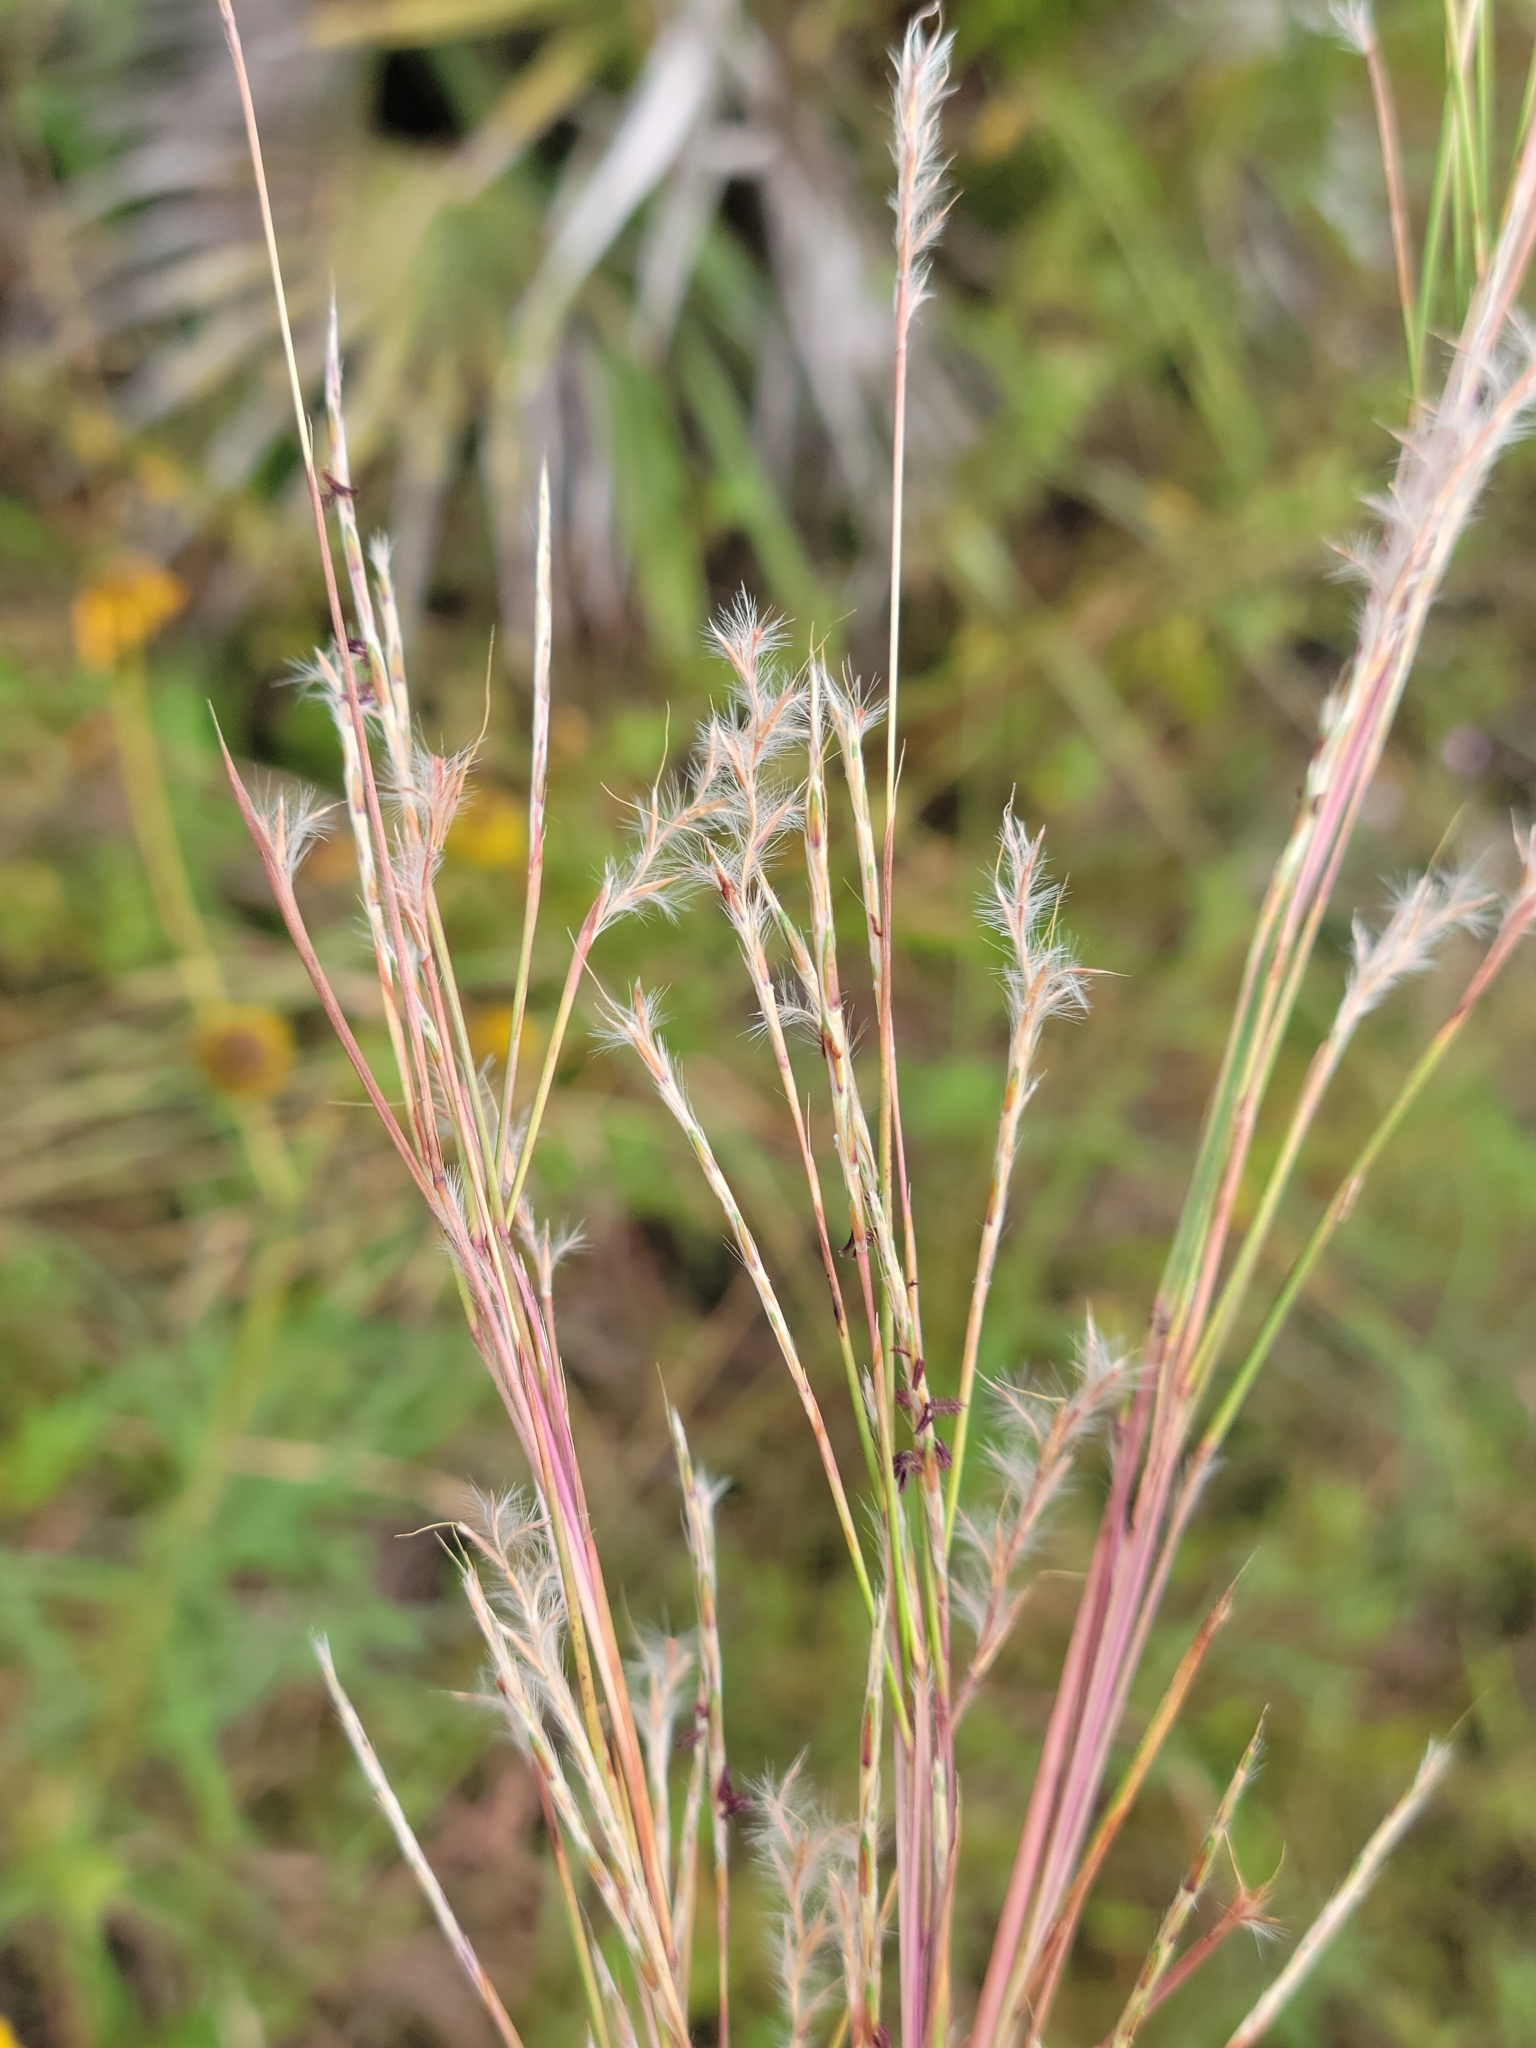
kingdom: Plantae
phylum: Tracheophyta
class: Liliopsida
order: Poales
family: Poaceae
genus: Andropogon
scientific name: Andropogon stolonifer
